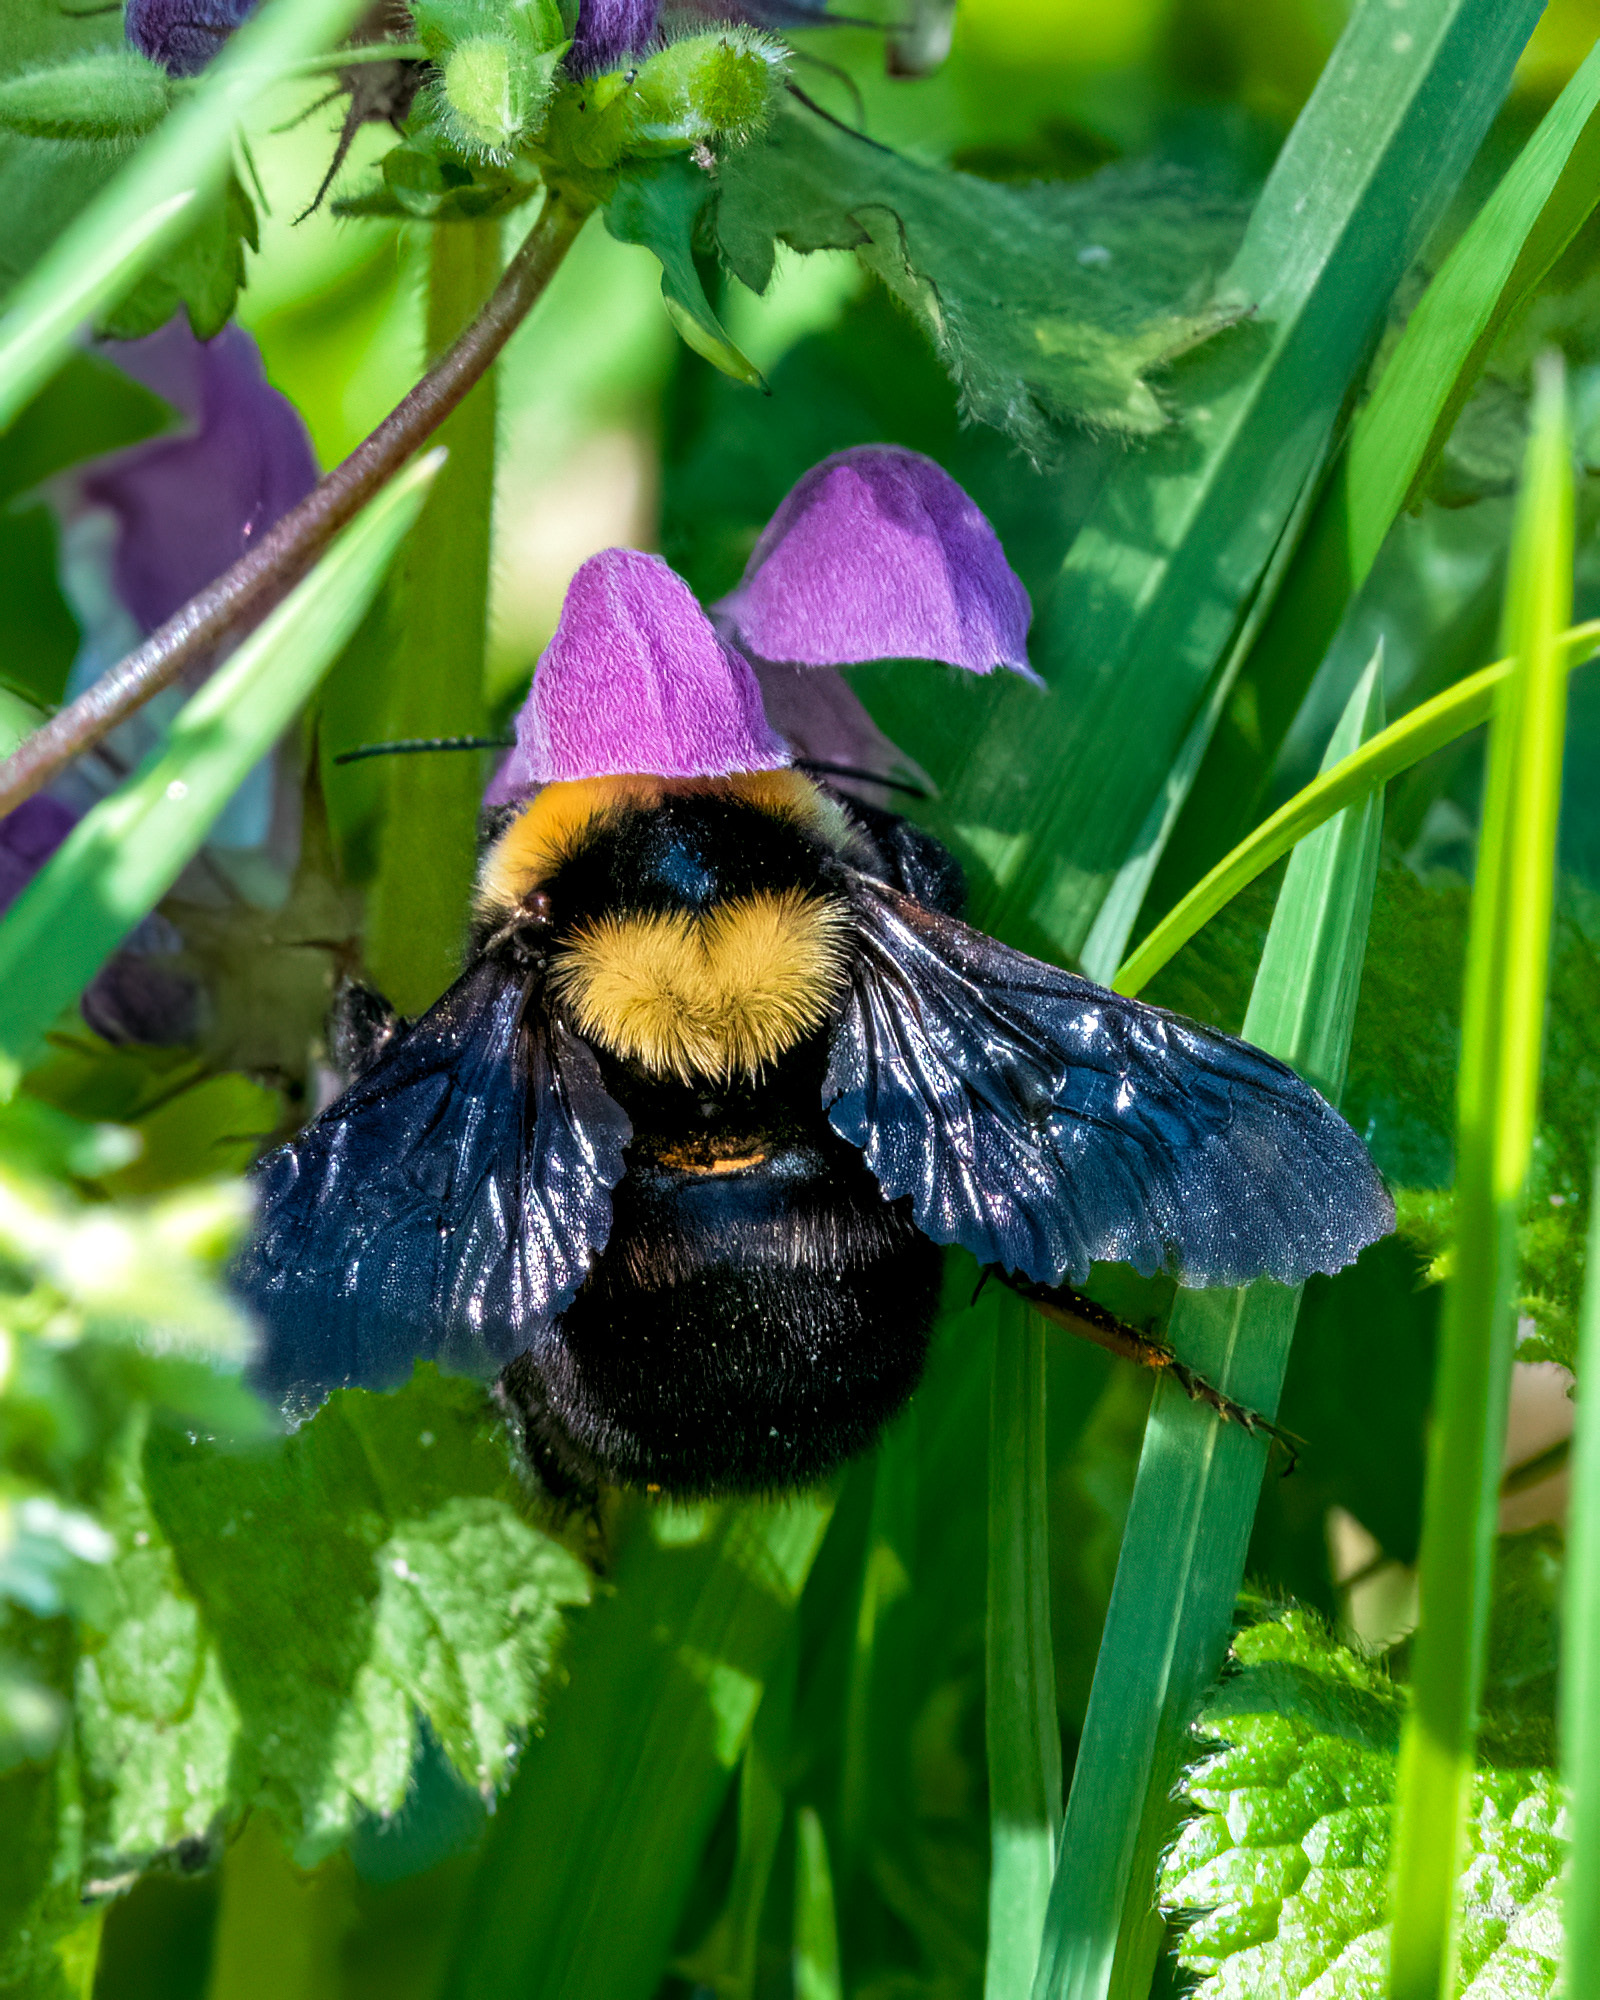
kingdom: Animalia
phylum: Arthropoda
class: Insecta
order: Hymenoptera
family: Apidae
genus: Bombus
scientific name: Bombus argillaceus
